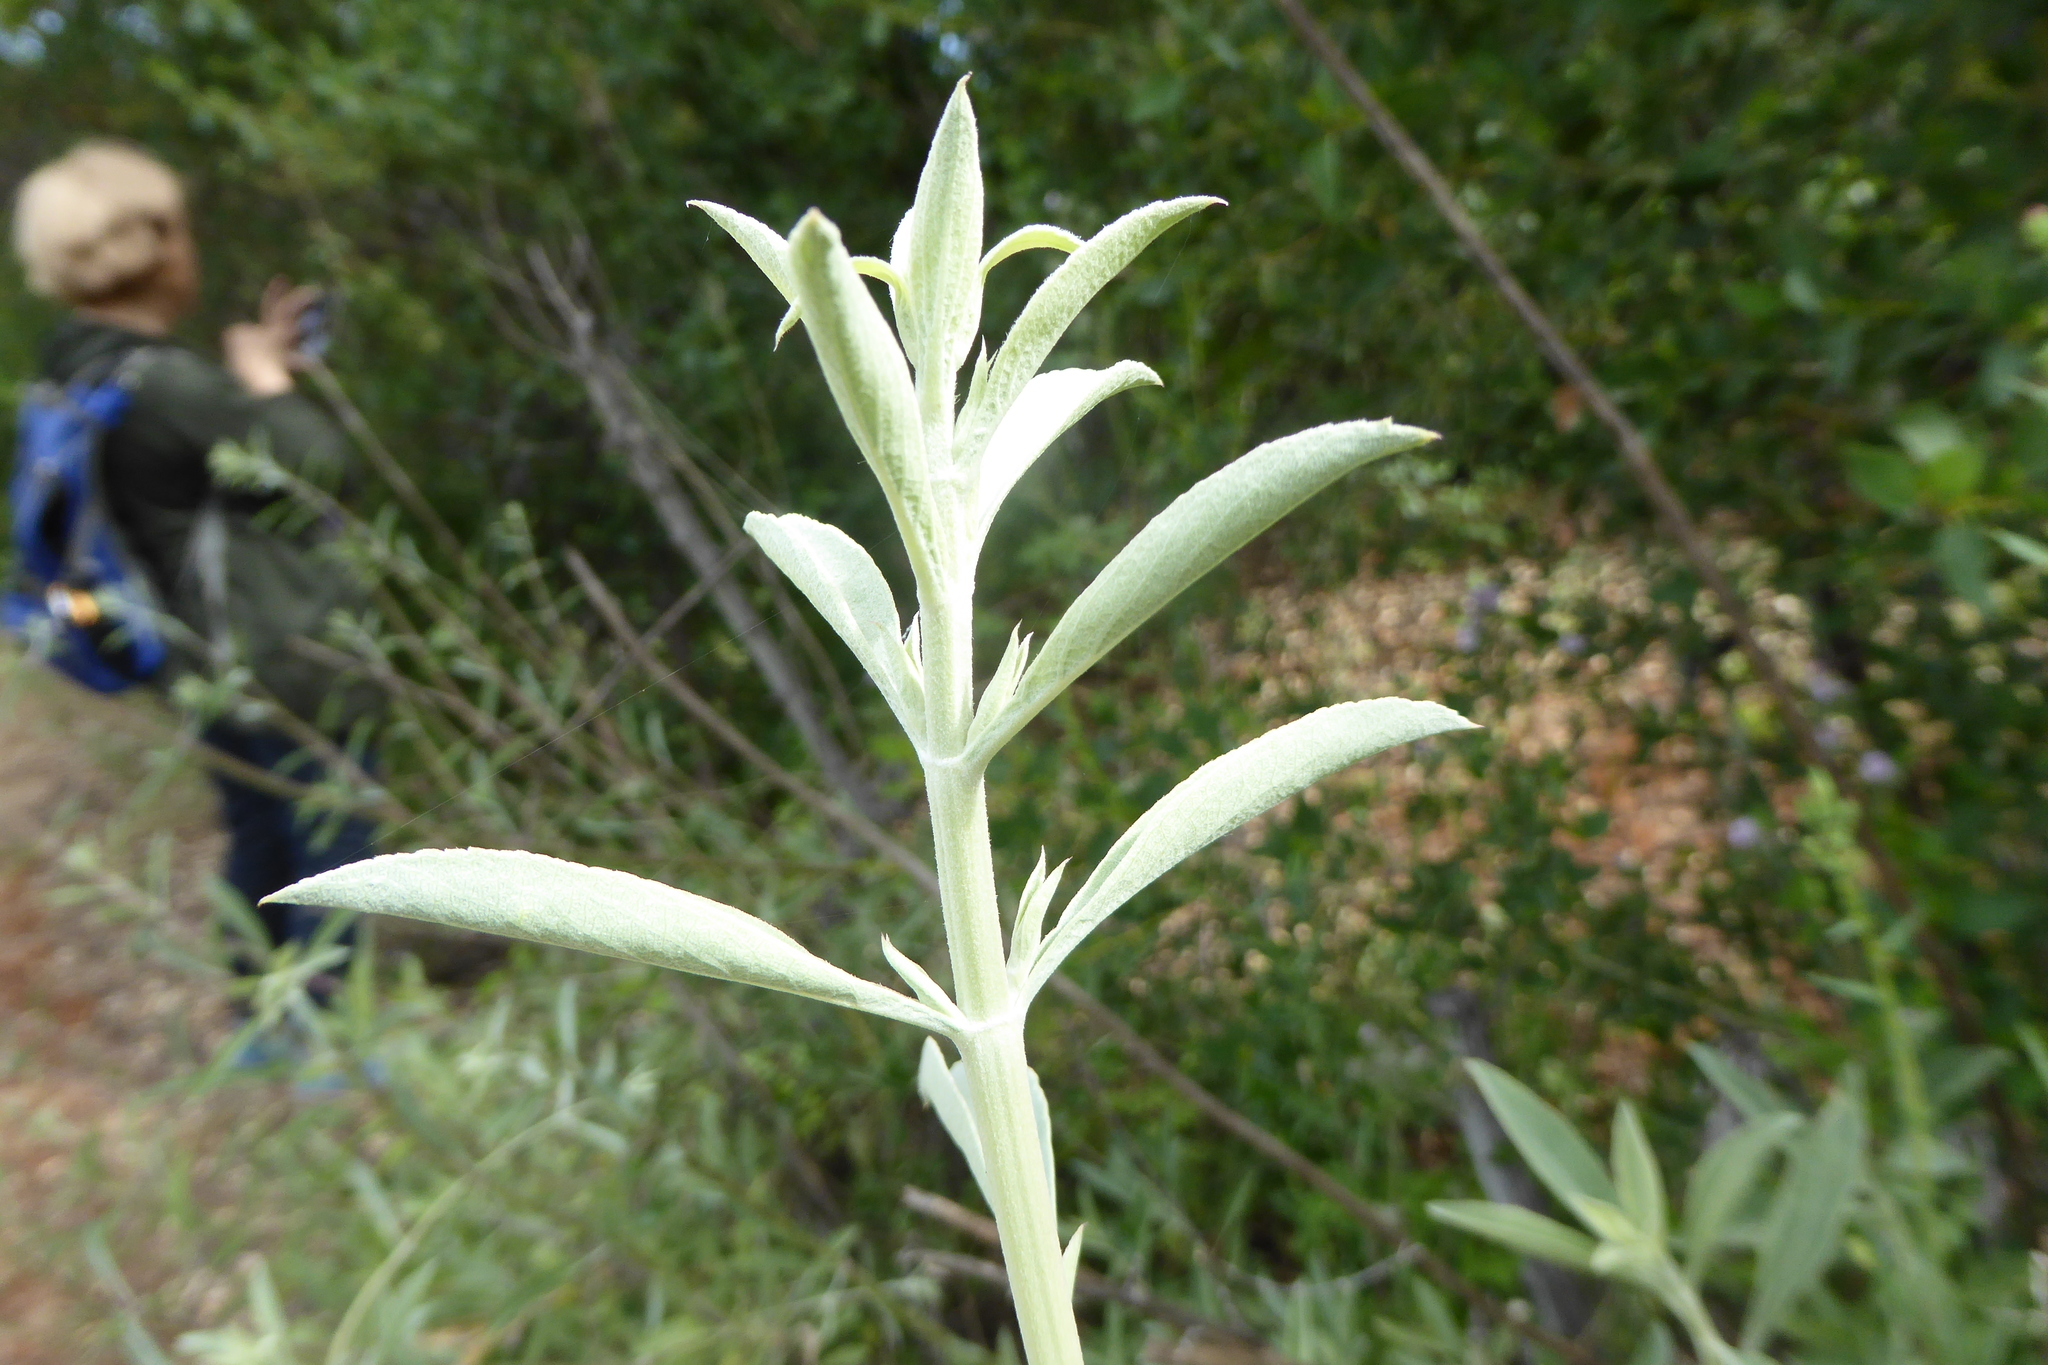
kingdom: Plantae
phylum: Tracheophyta
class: Magnoliopsida
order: Lamiales
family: Lamiaceae
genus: Salvia
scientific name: Salvia apiana
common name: White sage
